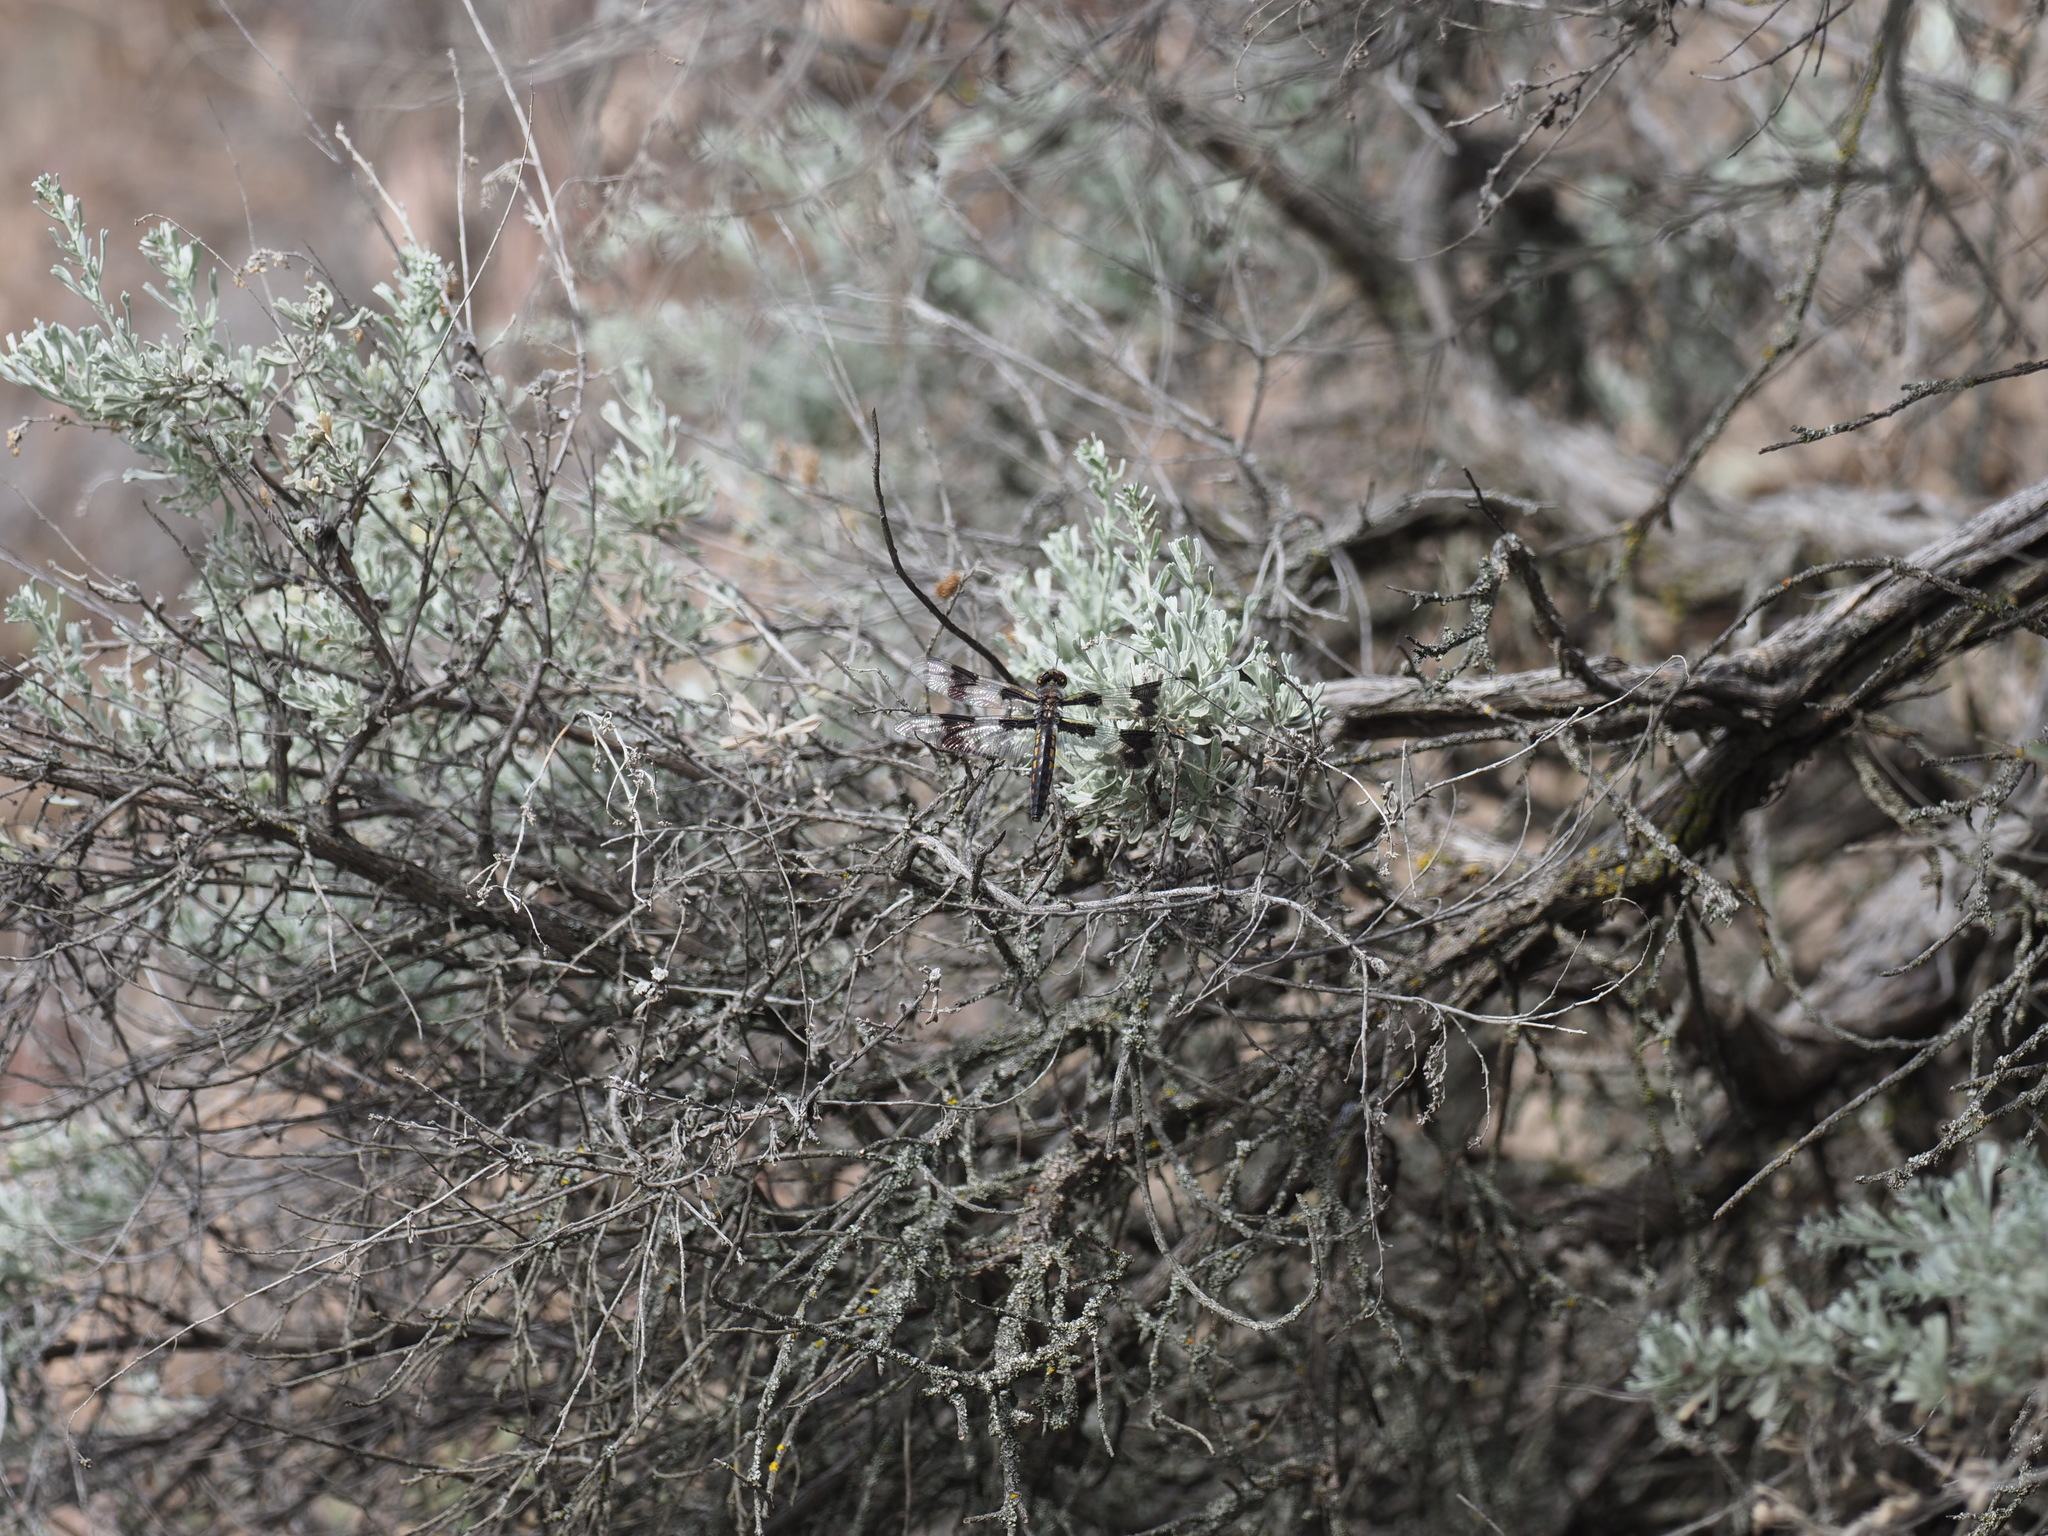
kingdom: Animalia
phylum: Arthropoda
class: Insecta
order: Odonata
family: Libellulidae
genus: Libellula
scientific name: Libellula forensis
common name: Eight-spotted skimmer
